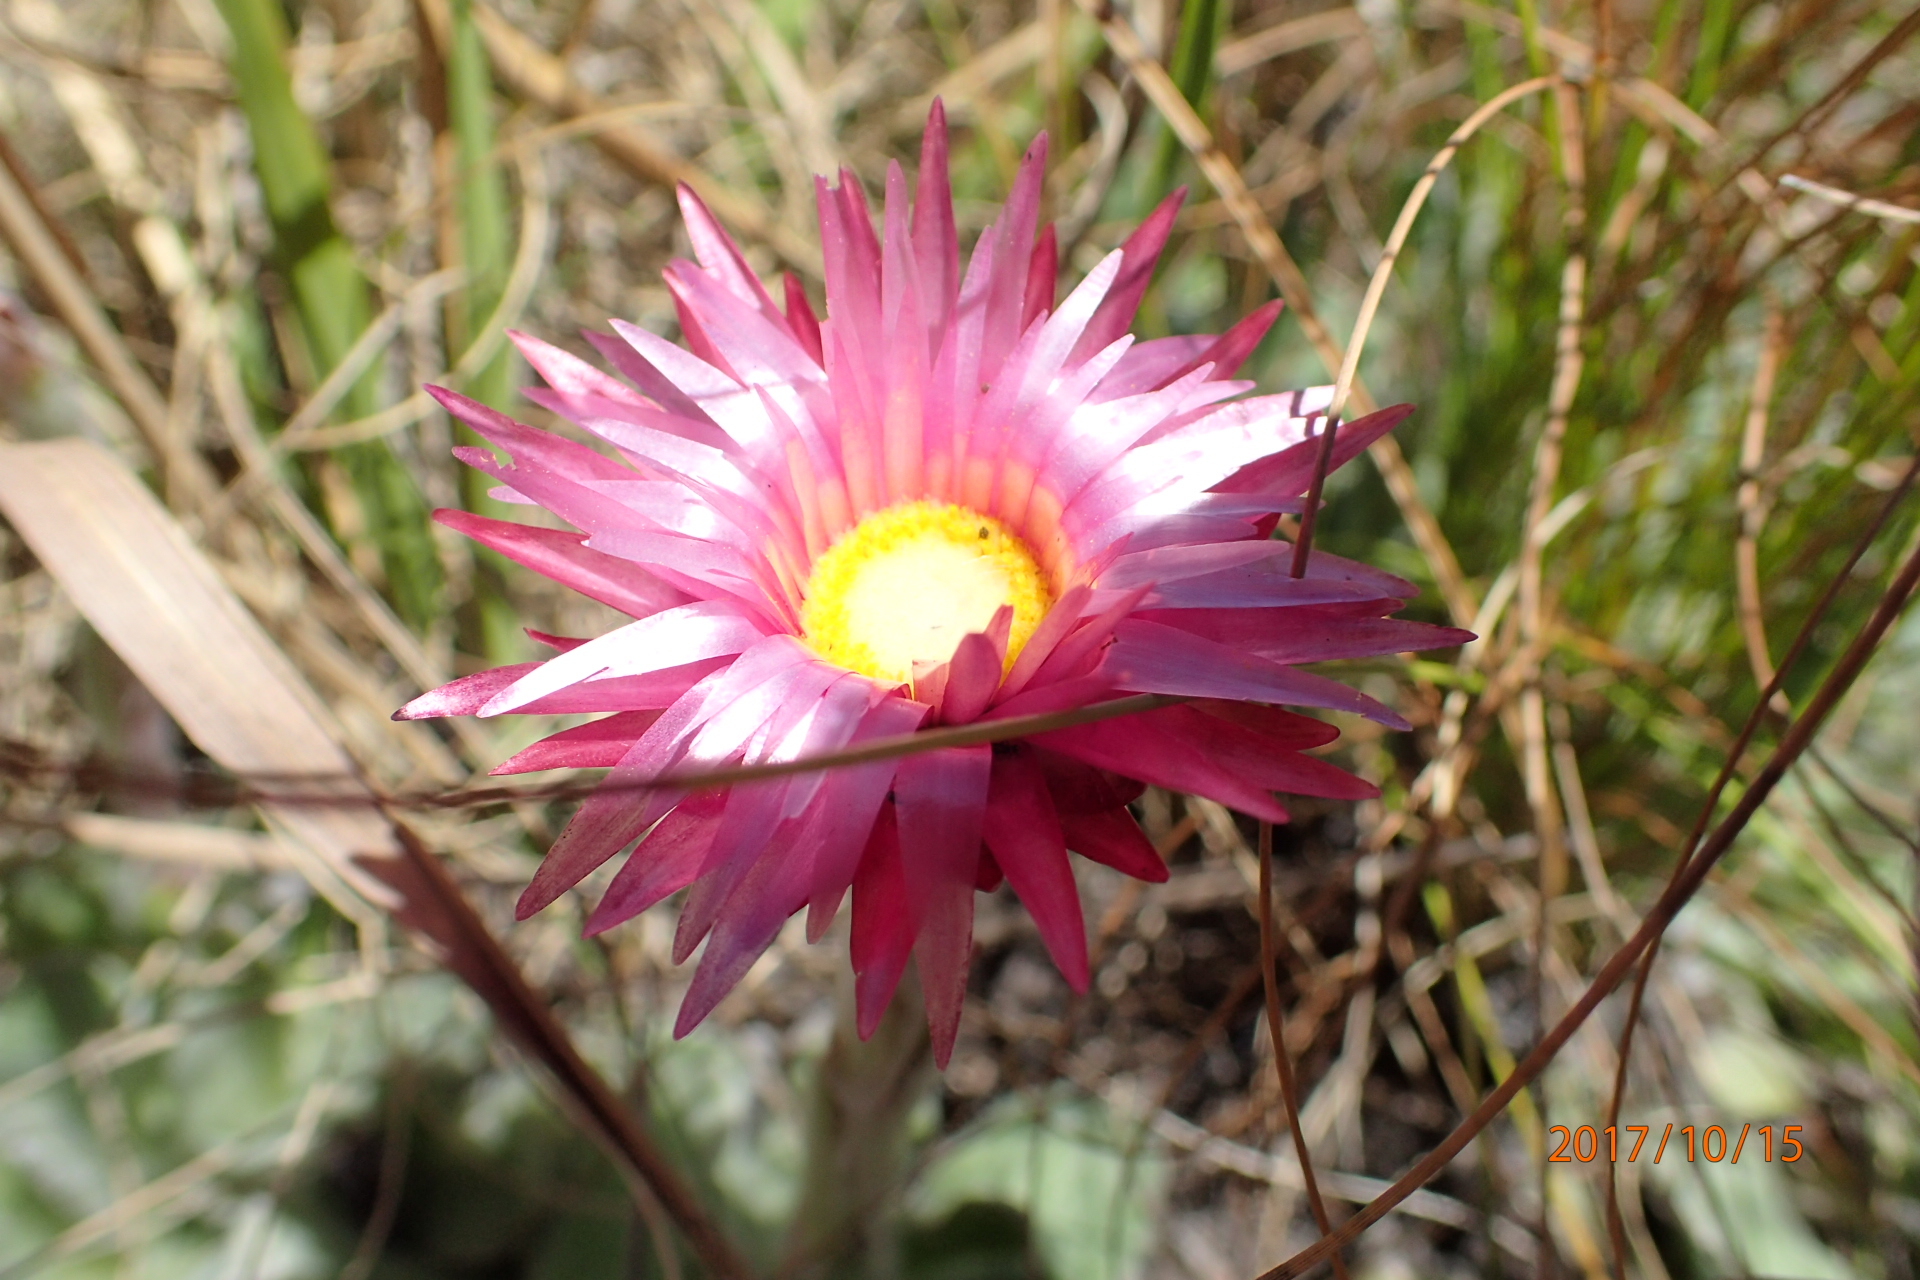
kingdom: Plantae
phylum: Tracheophyta
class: Magnoliopsida
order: Asterales
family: Asteraceae
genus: Helichrysum
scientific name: Helichrysum ecklonis
